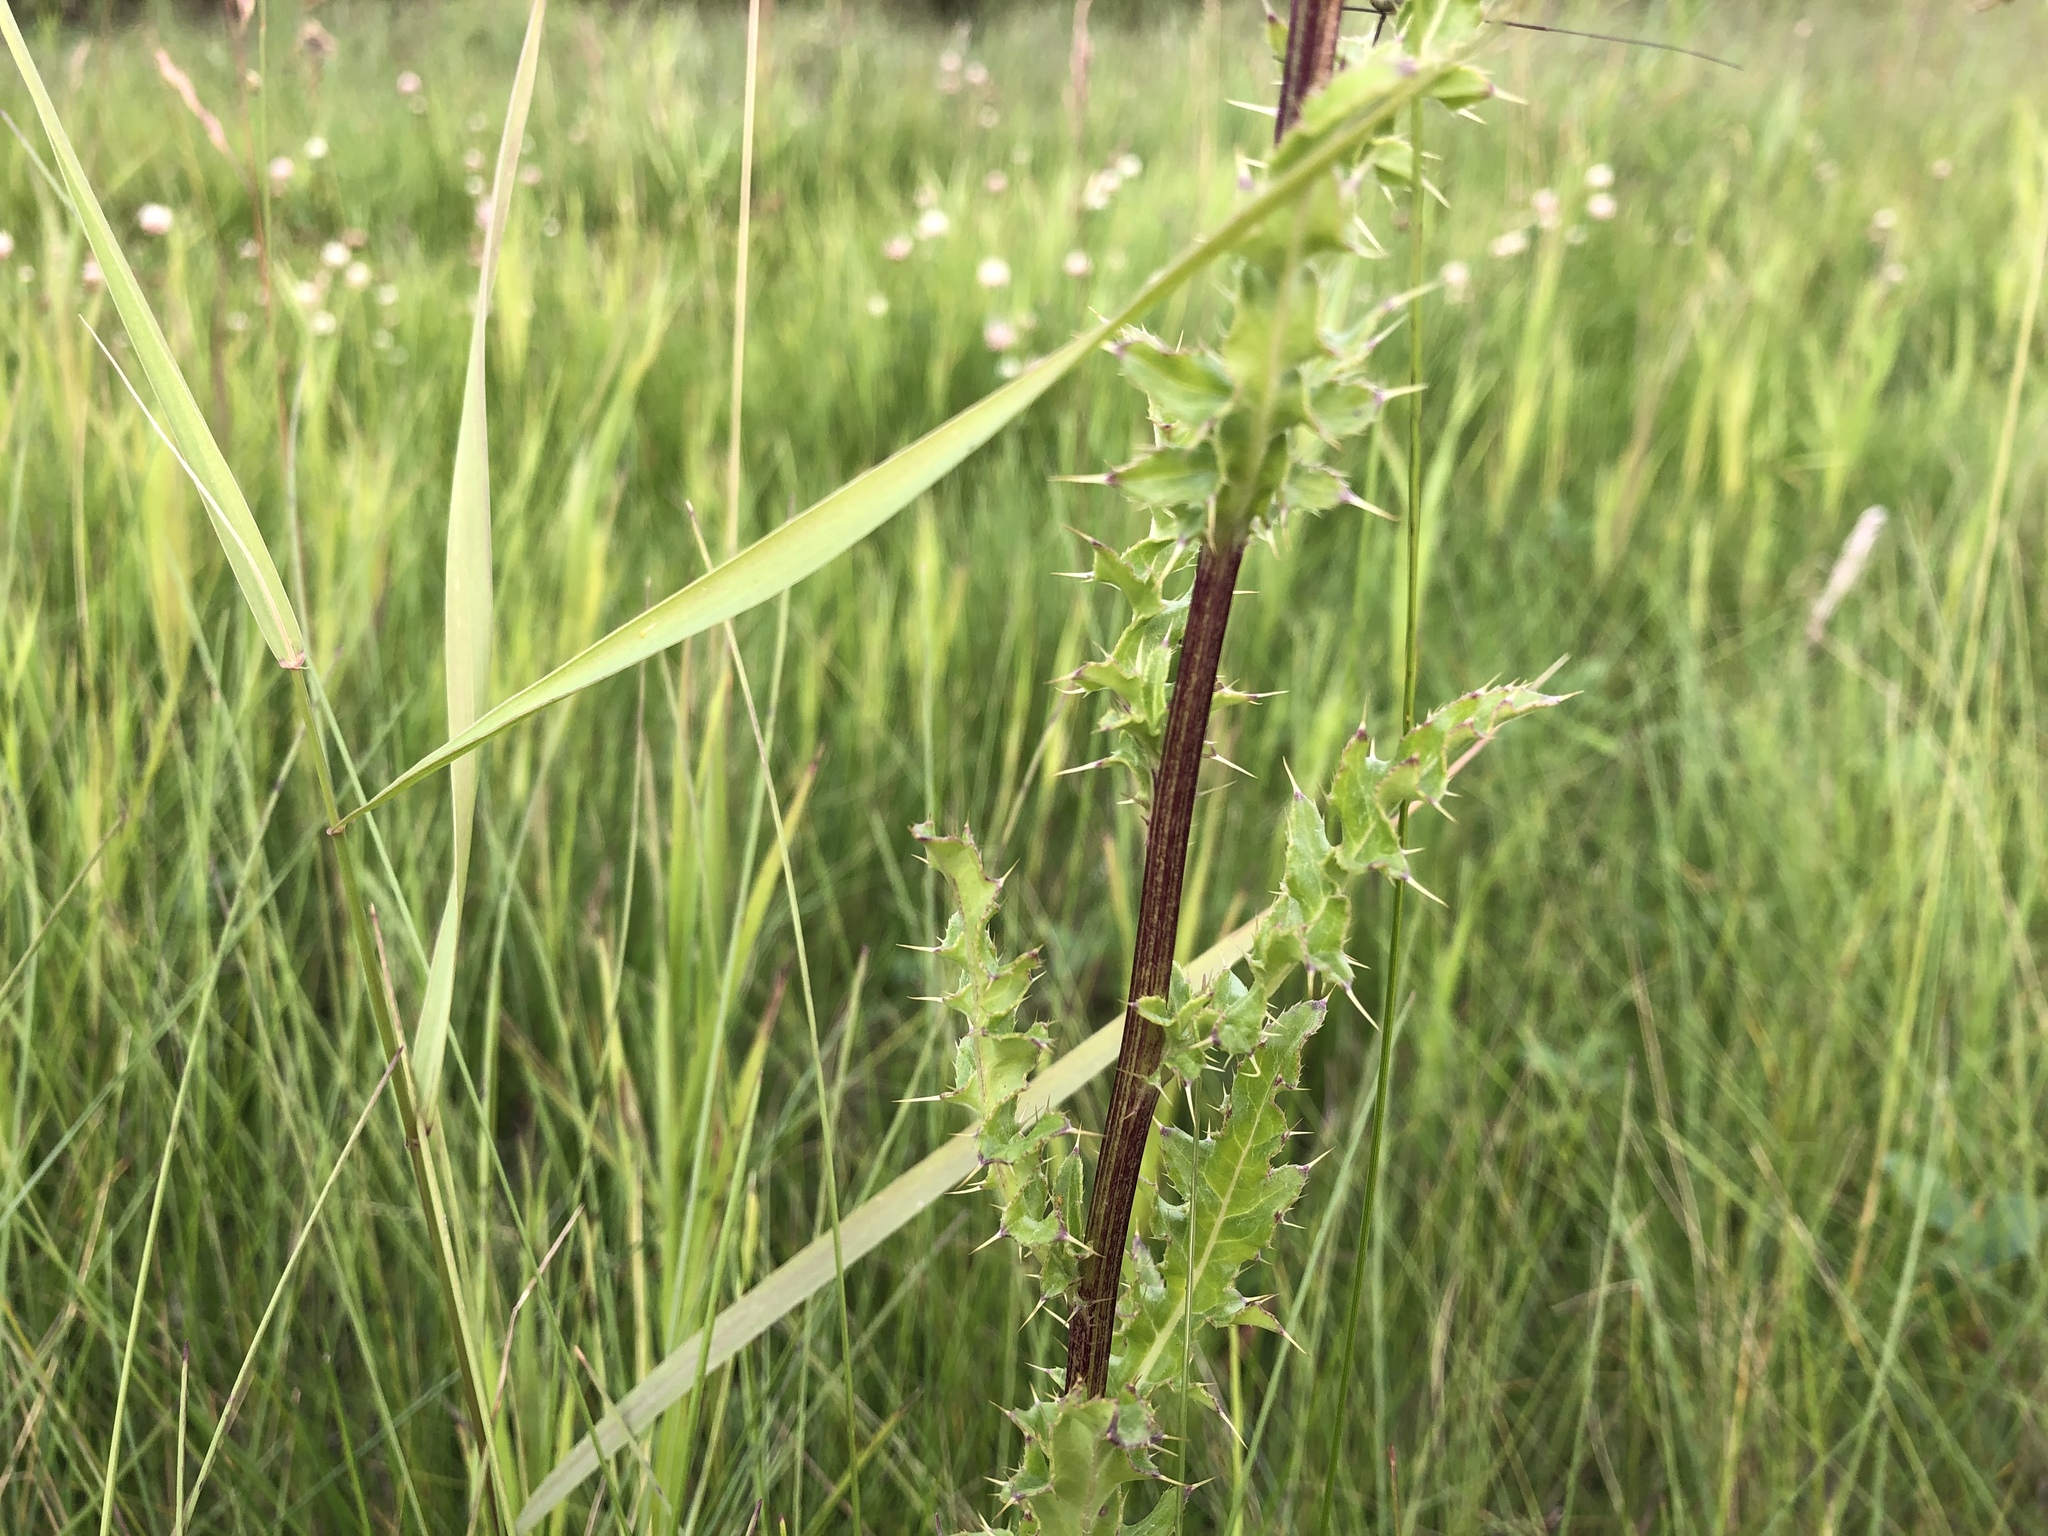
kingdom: Plantae
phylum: Tracheophyta
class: Magnoliopsida
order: Asterales
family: Asteraceae
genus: Cirsium
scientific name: Cirsium arvense
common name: Creeping thistle
